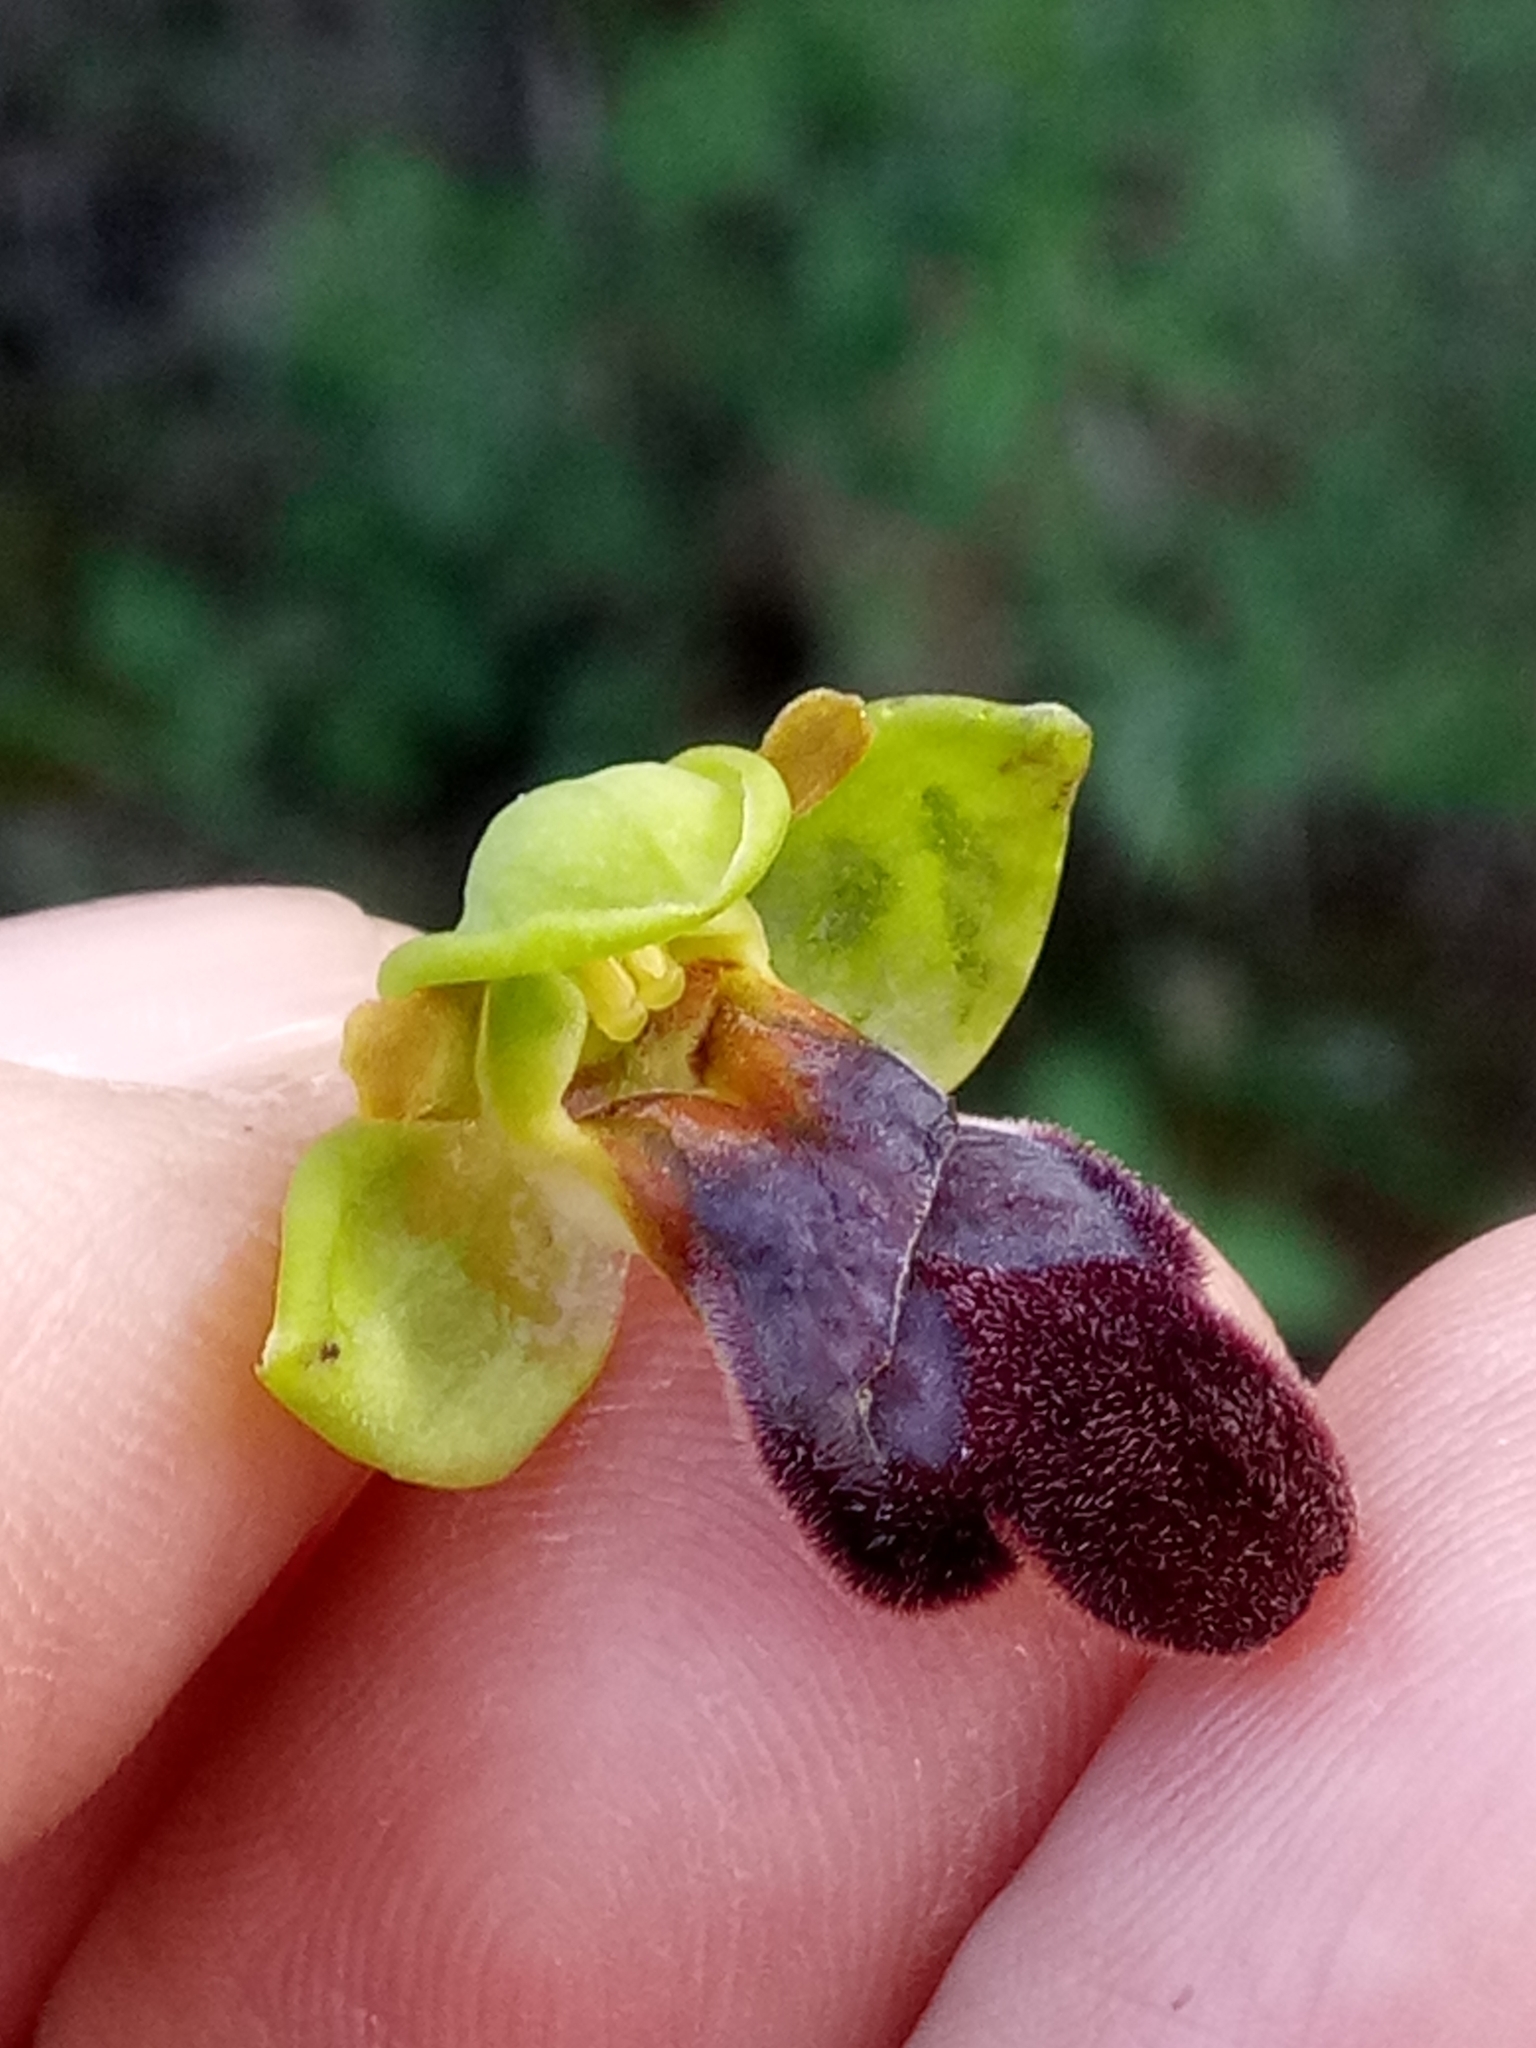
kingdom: Plantae
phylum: Tracheophyta
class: Liliopsida
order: Asparagales
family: Orchidaceae
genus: Ophrys
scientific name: Ophrys fusca
